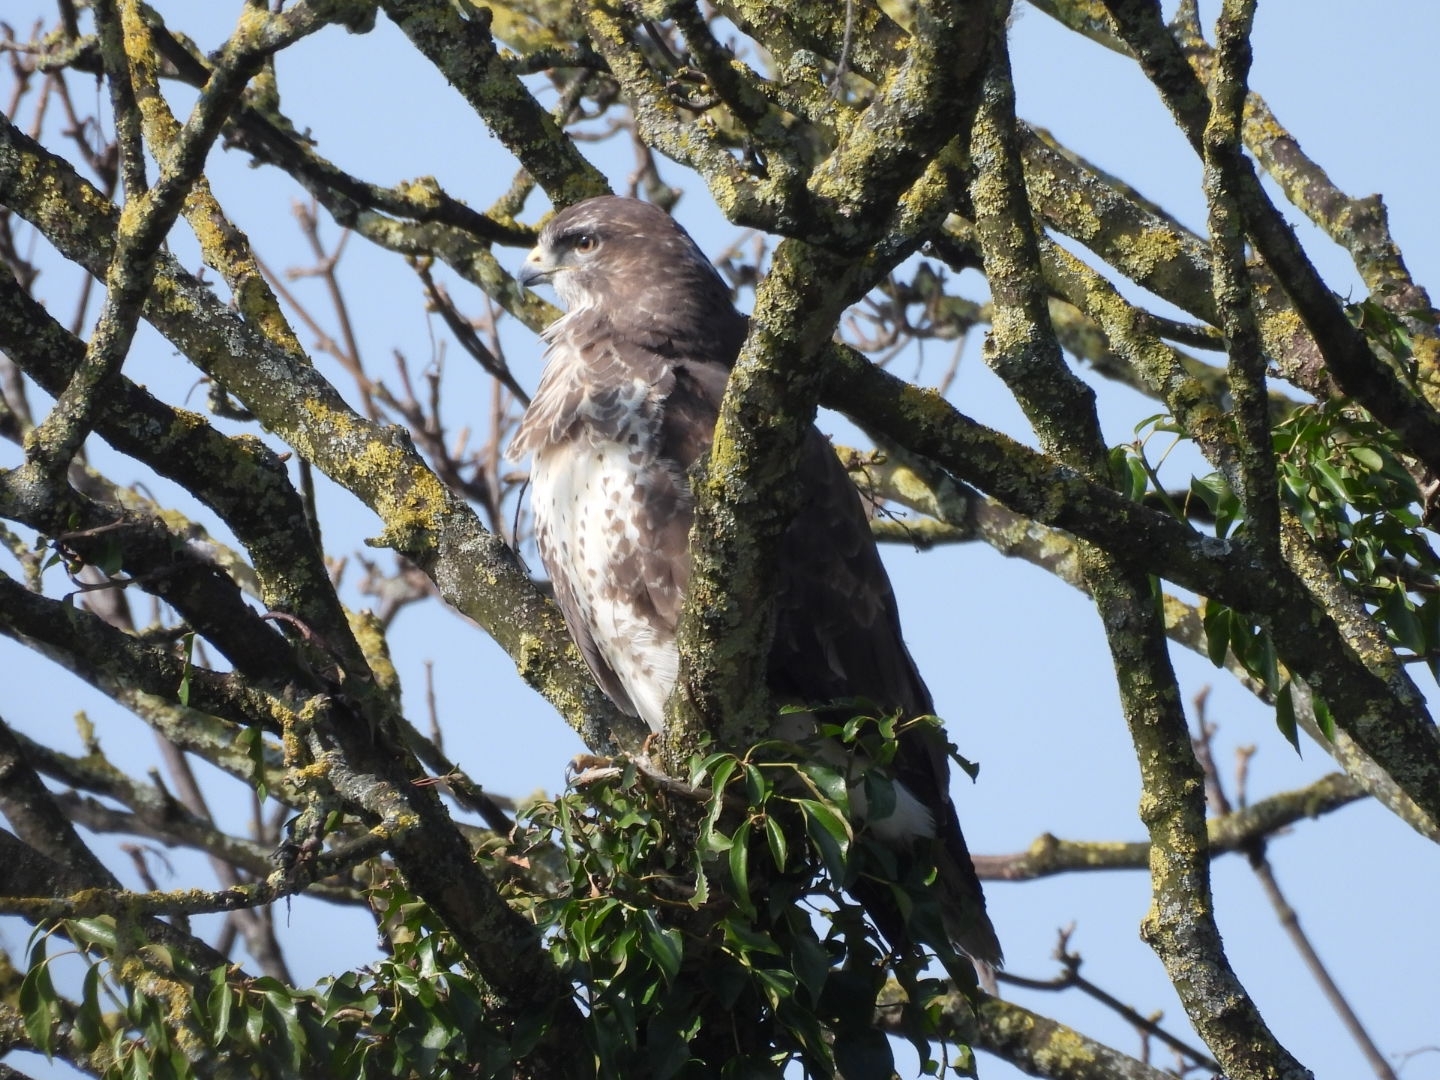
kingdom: Animalia
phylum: Chordata
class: Aves
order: Accipitriformes
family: Accipitridae
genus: Buteo
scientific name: Buteo buteo
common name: Common buzzard
